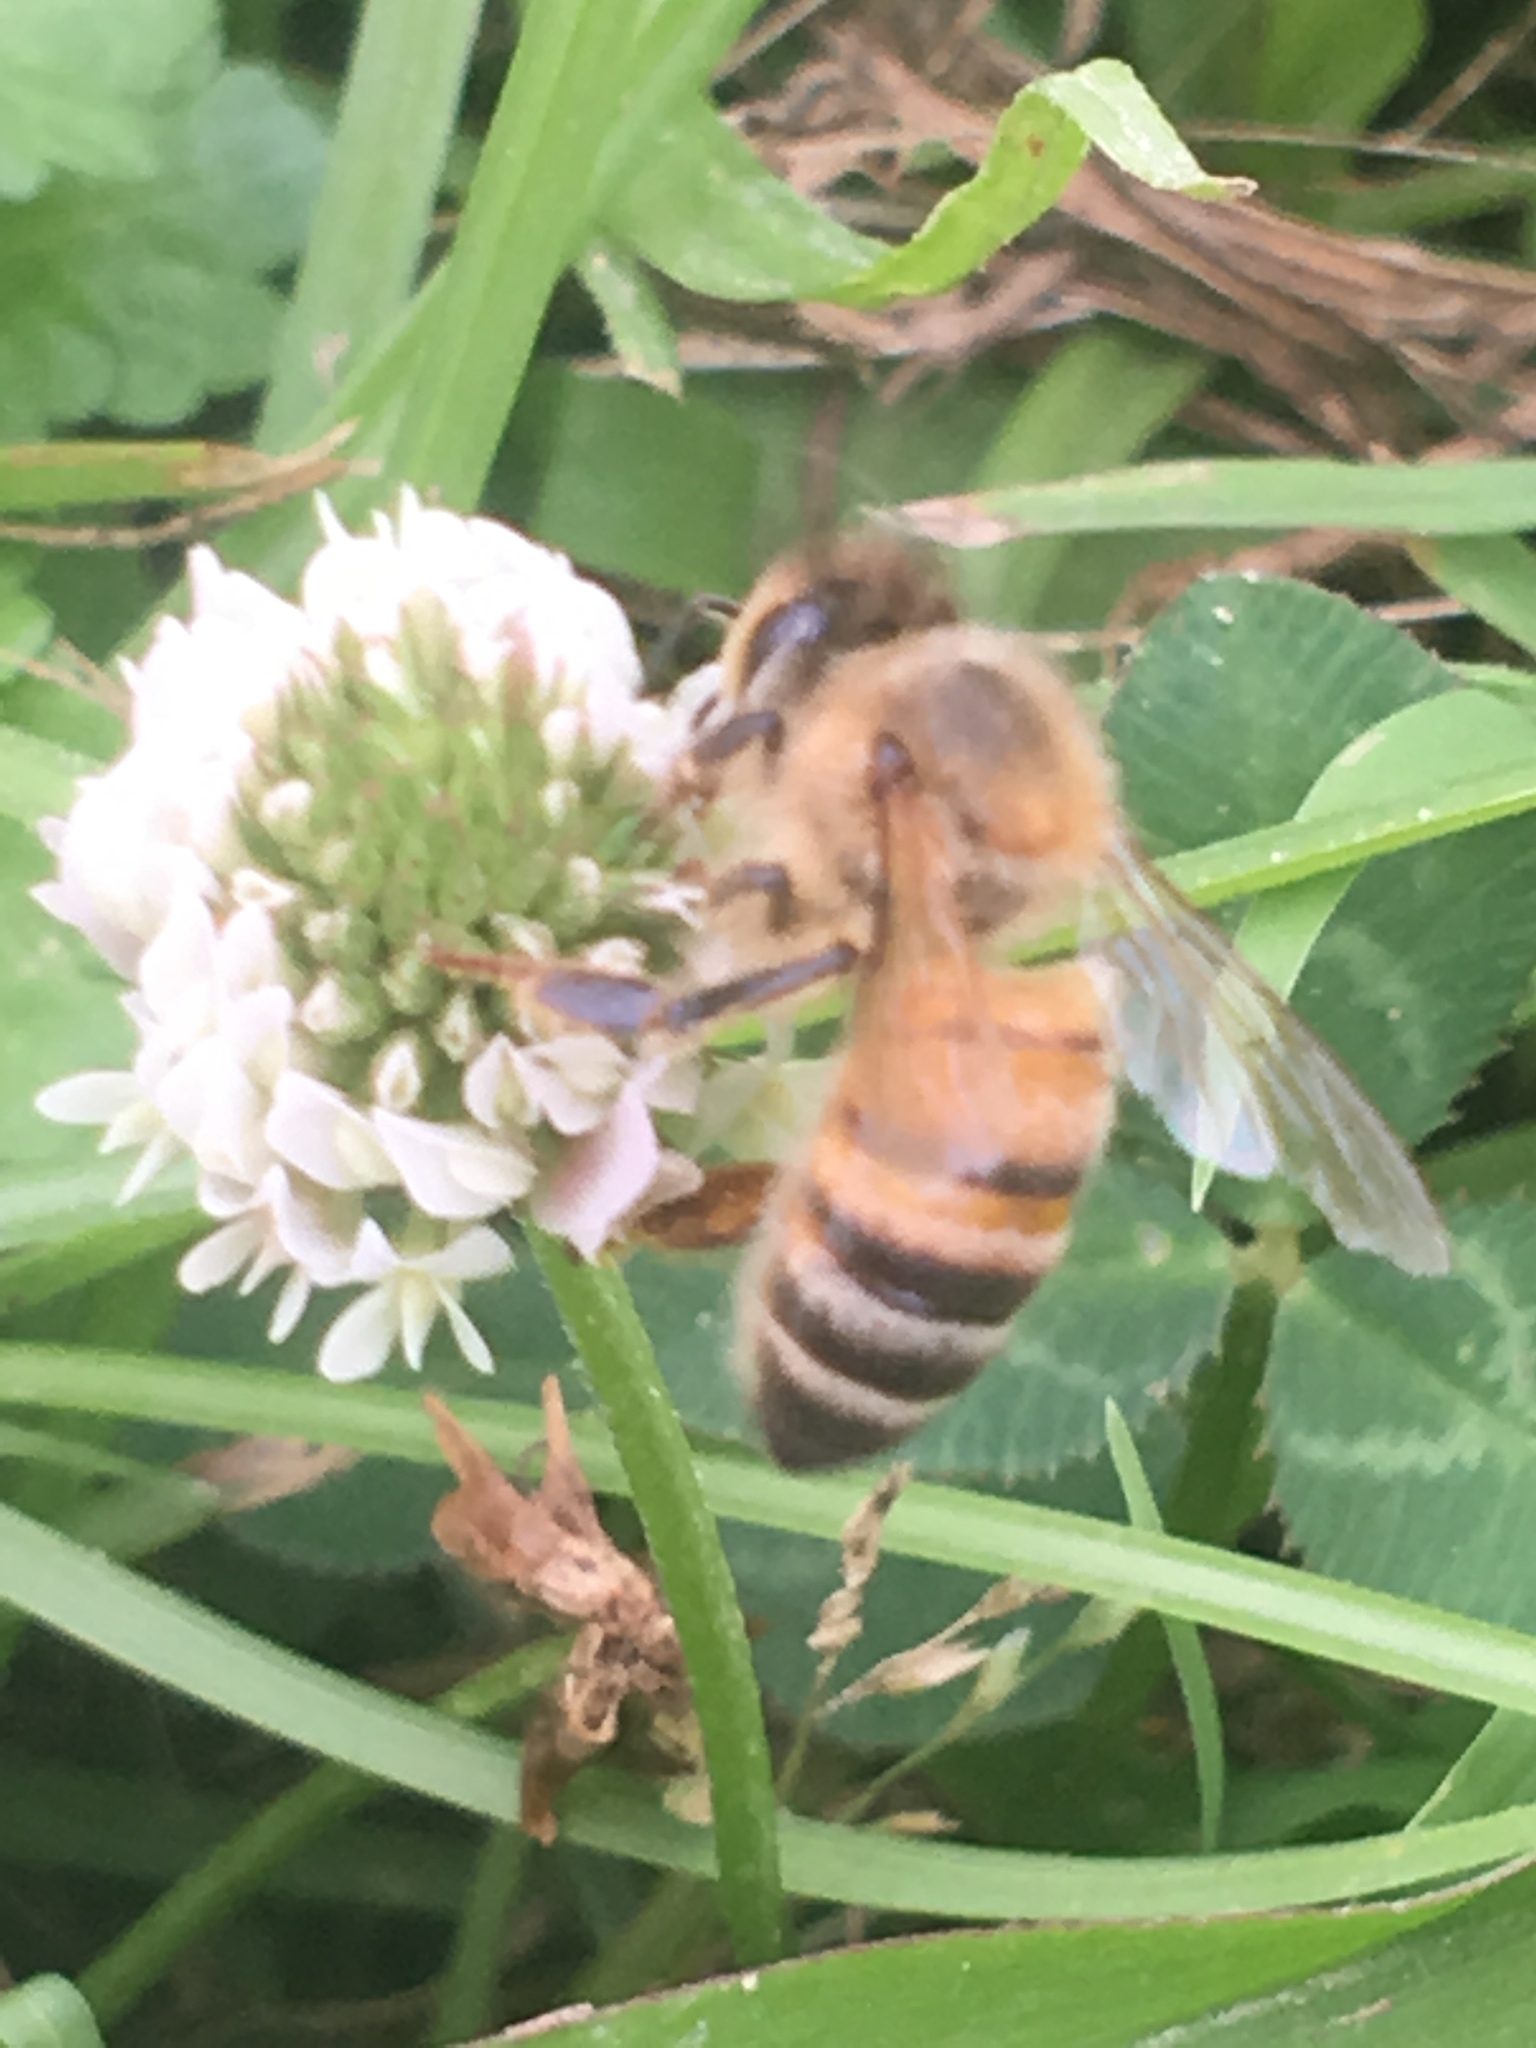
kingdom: Animalia
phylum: Arthropoda
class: Insecta
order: Hymenoptera
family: Apidae
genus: Apis
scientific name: Apis mellifera
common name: Honey bee
